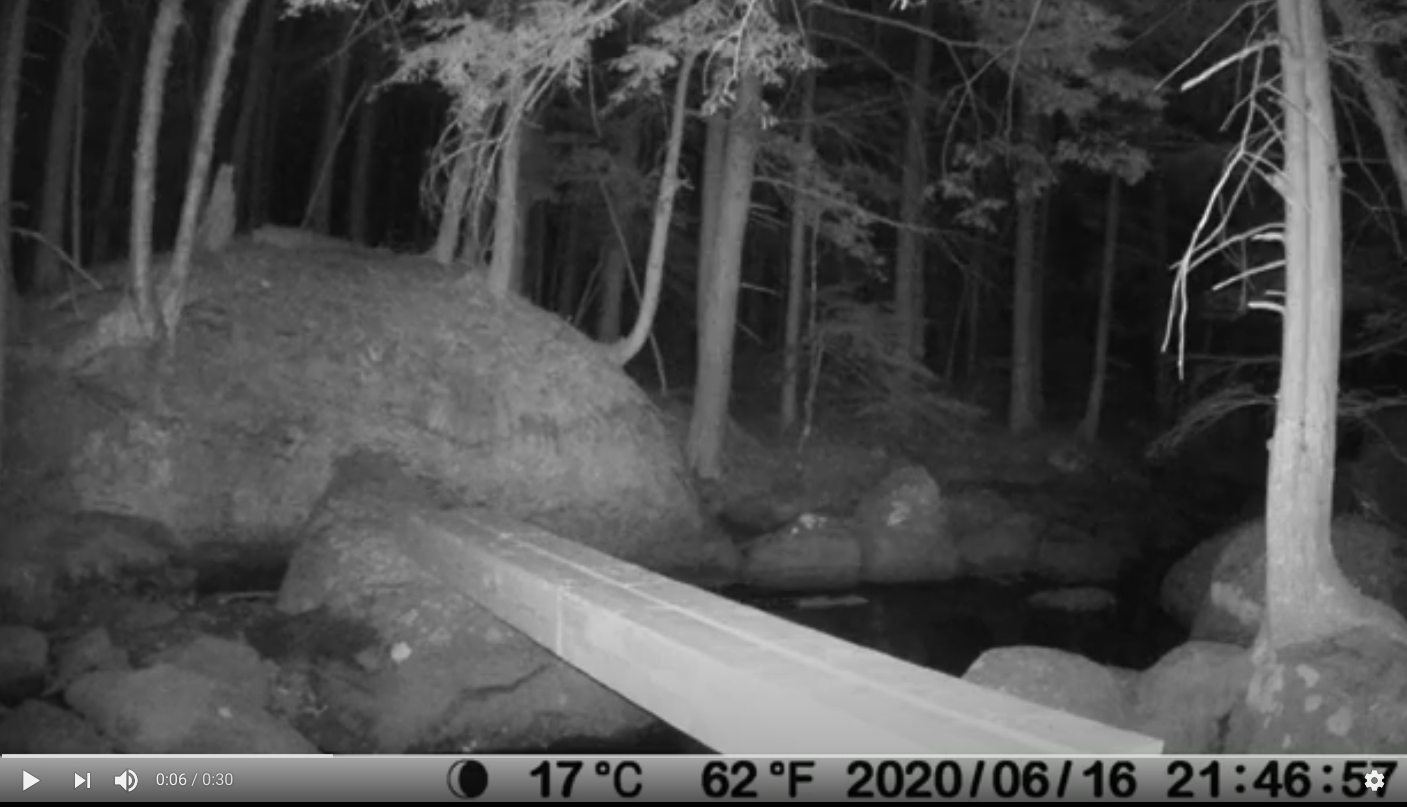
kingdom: Animalia
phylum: Chordata
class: Mammalia
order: Carnivora
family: Procyonidae
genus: Procyon
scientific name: Procyon lotor
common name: Raccoon
